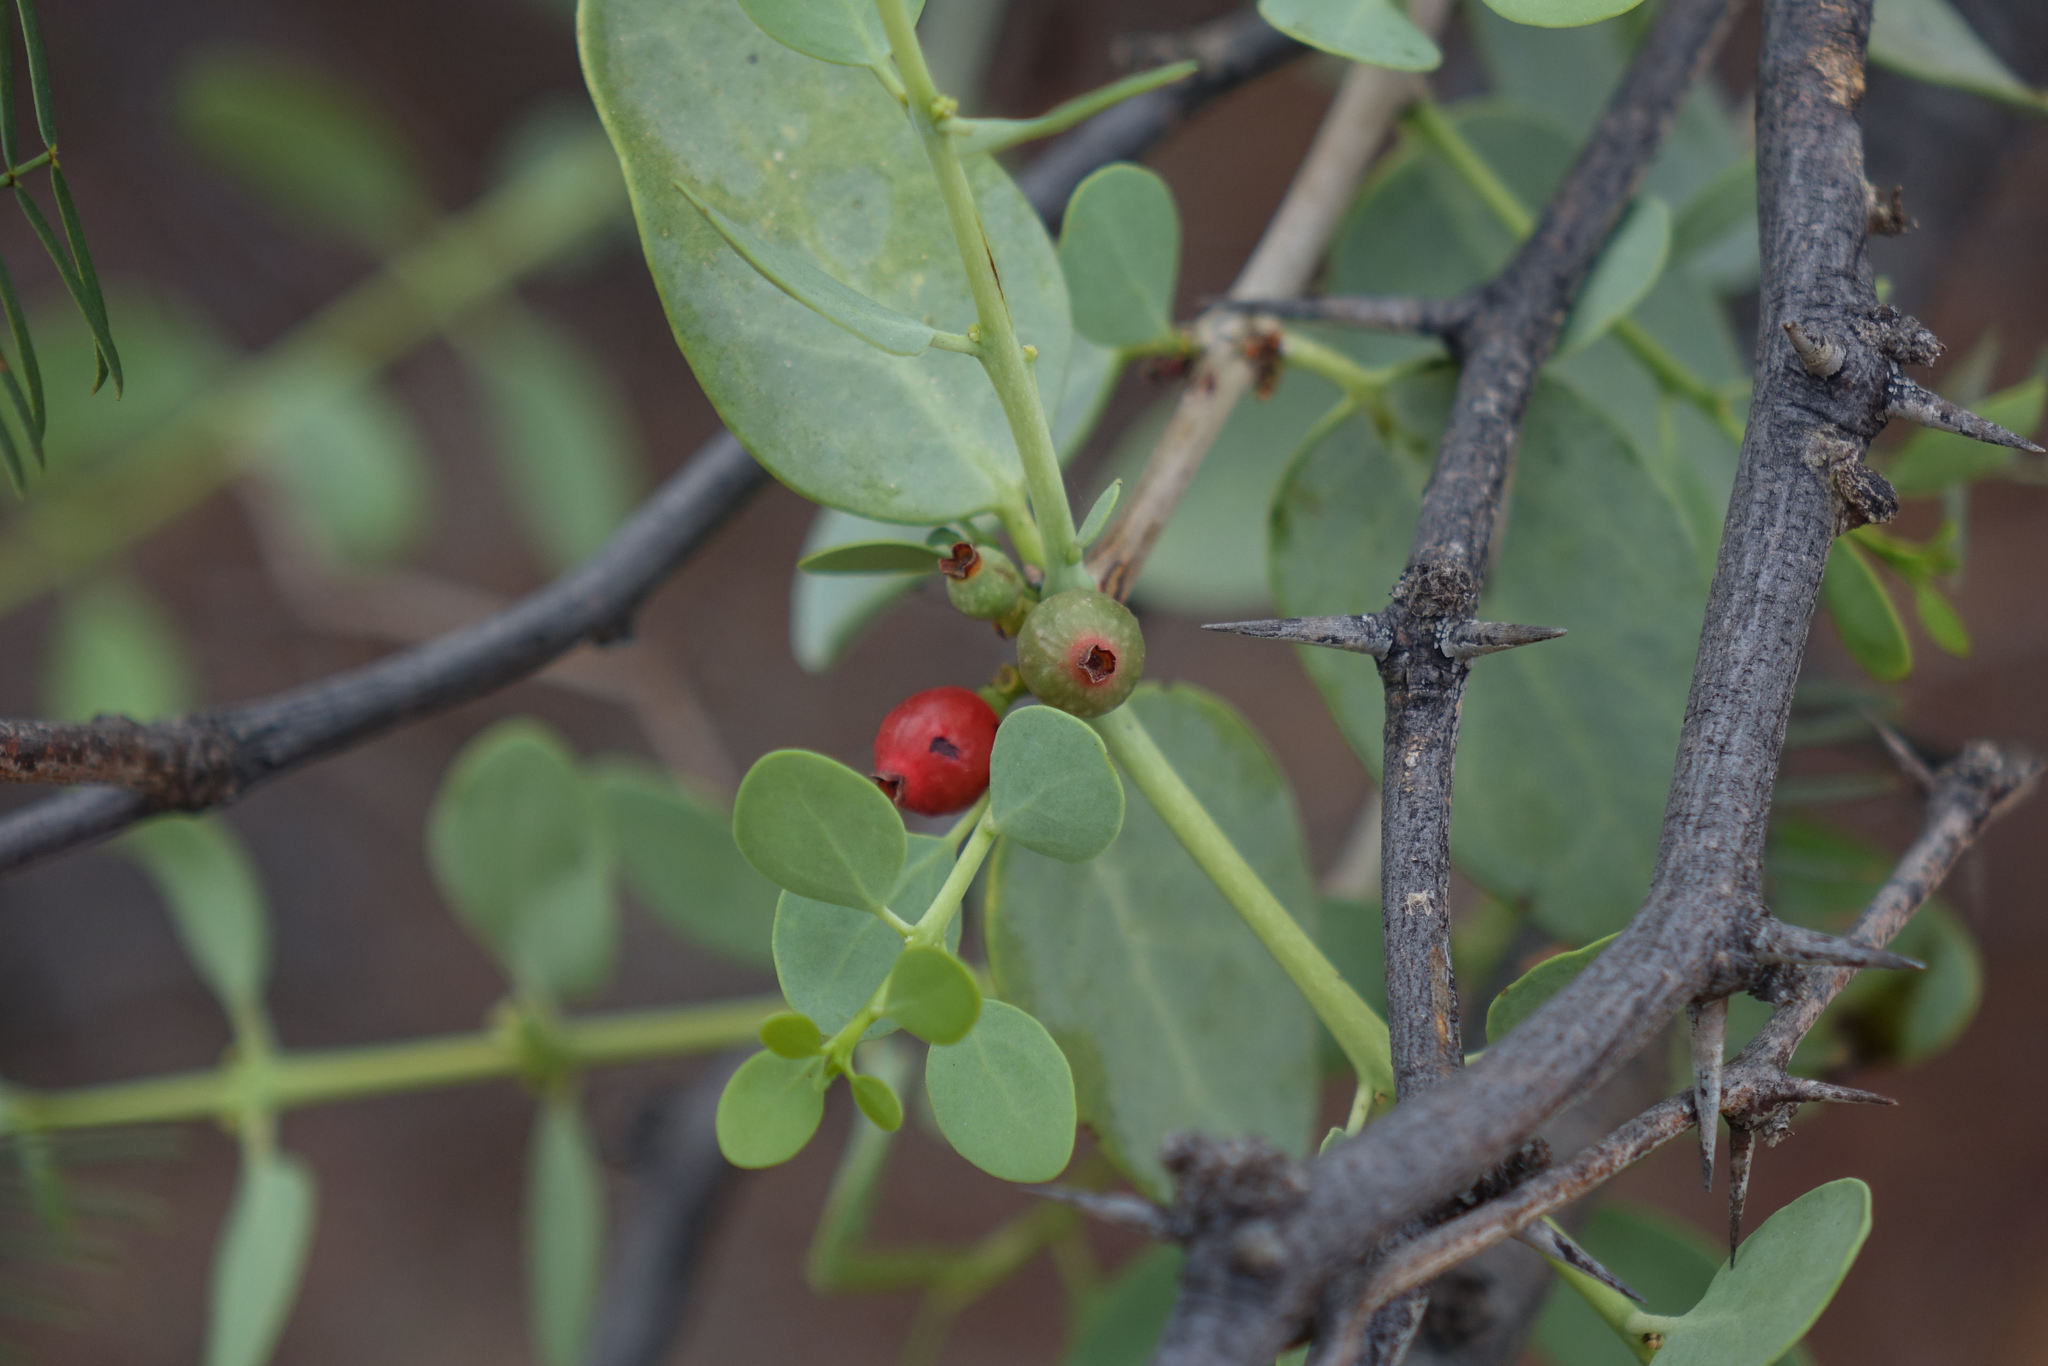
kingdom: Plantae
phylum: Tracheophyta
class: Magnoliopsida
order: Santalales
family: Loranthaceae
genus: Tapinanthus
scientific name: Tapinanthus oleifolius
